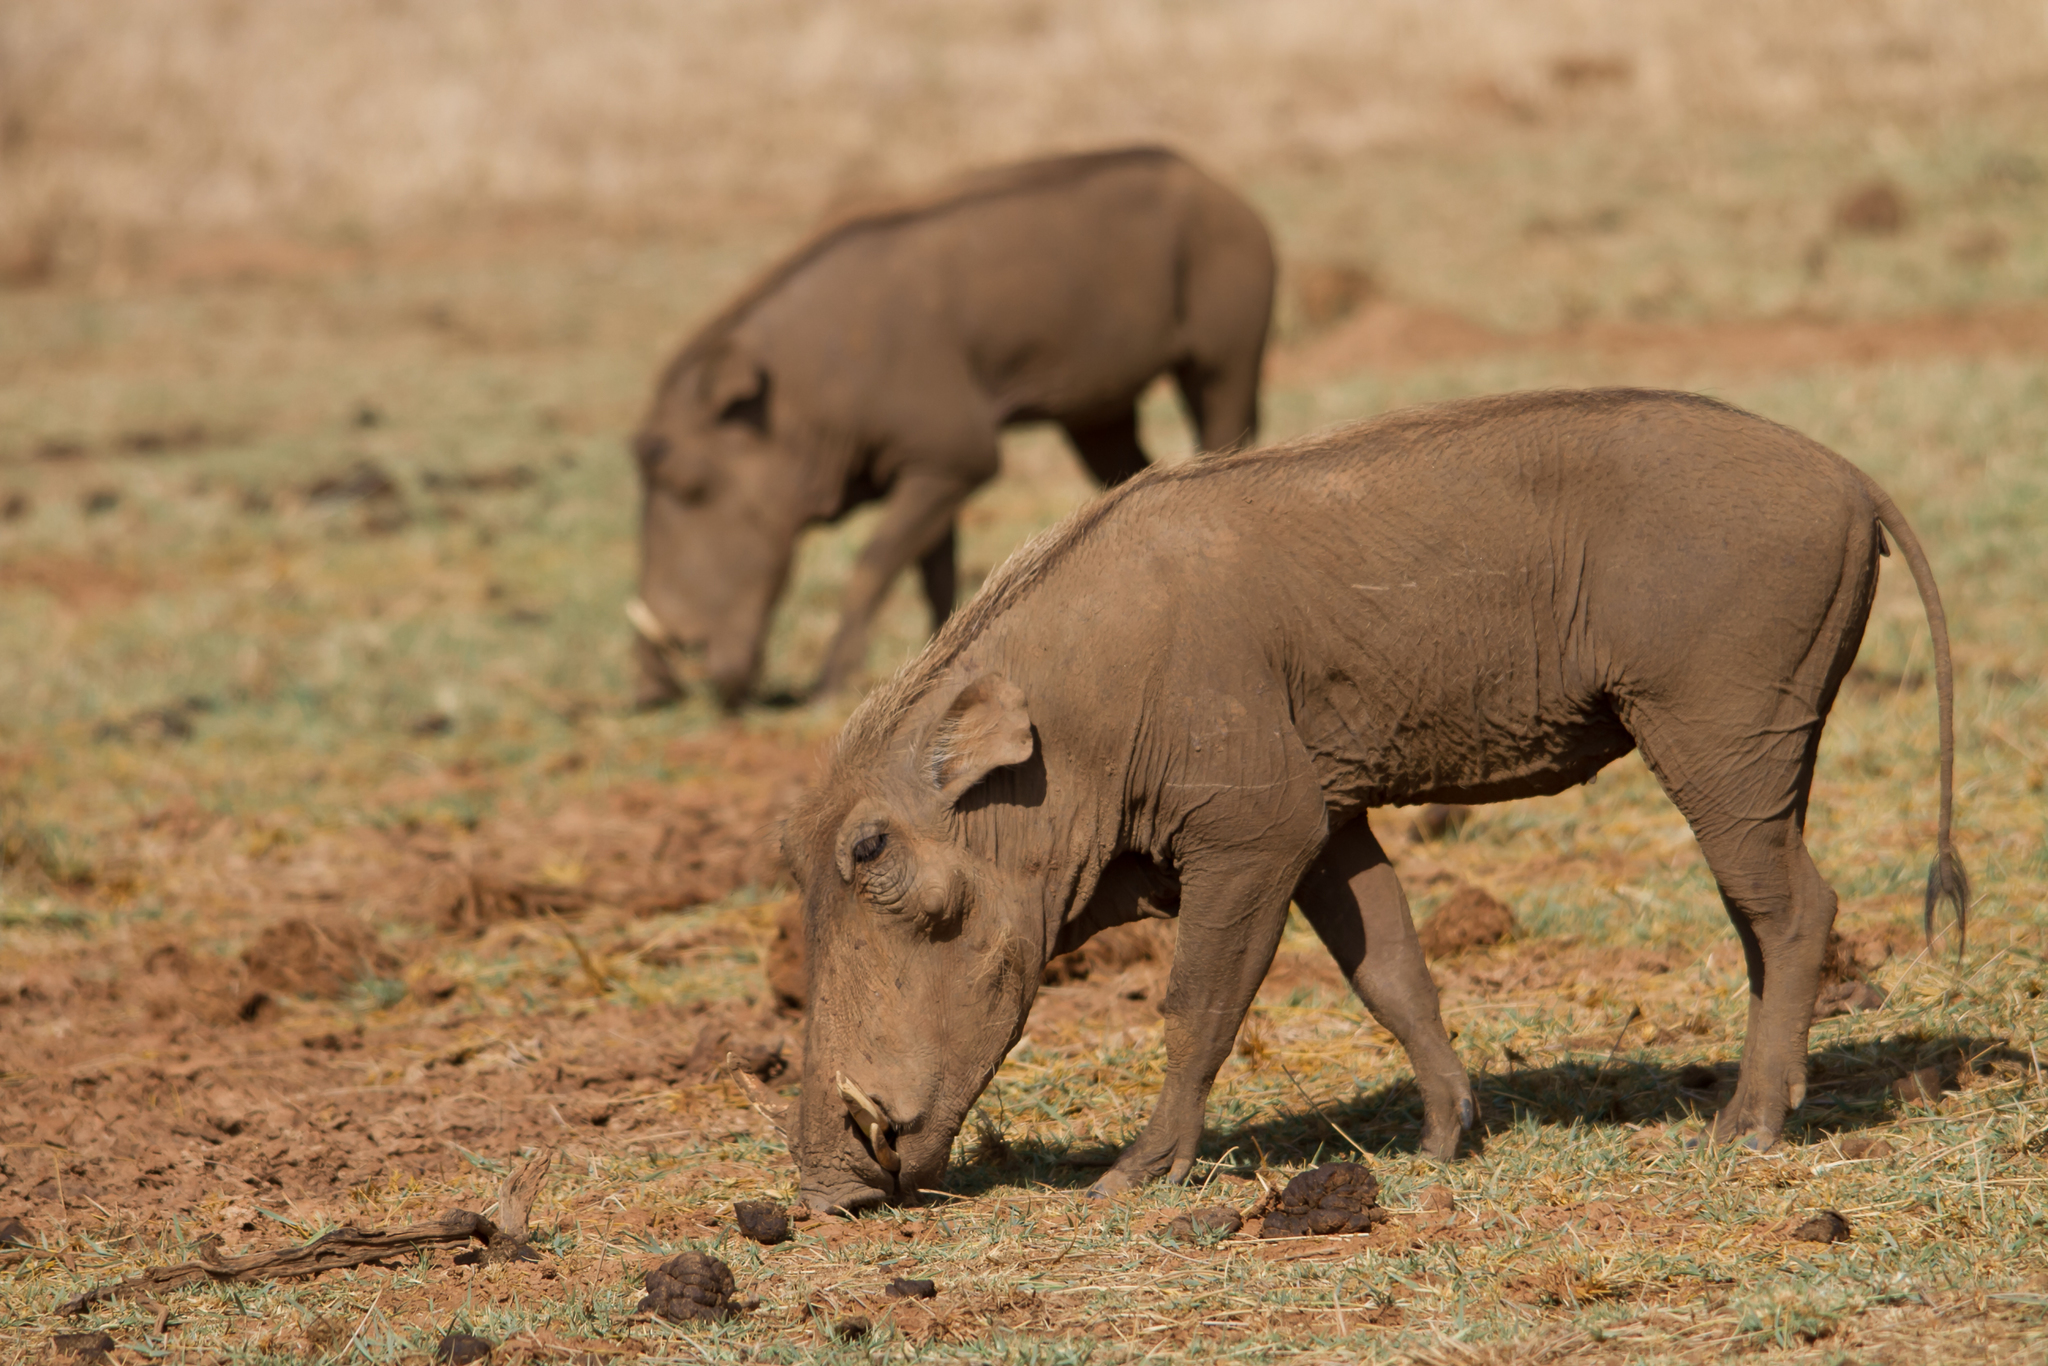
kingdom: Animalia
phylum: Chordata
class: Mammalia
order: Artiodactyla
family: Suidae
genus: Phacochoerus
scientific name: Phacochoerus aethiopicus
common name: Desert warthog
